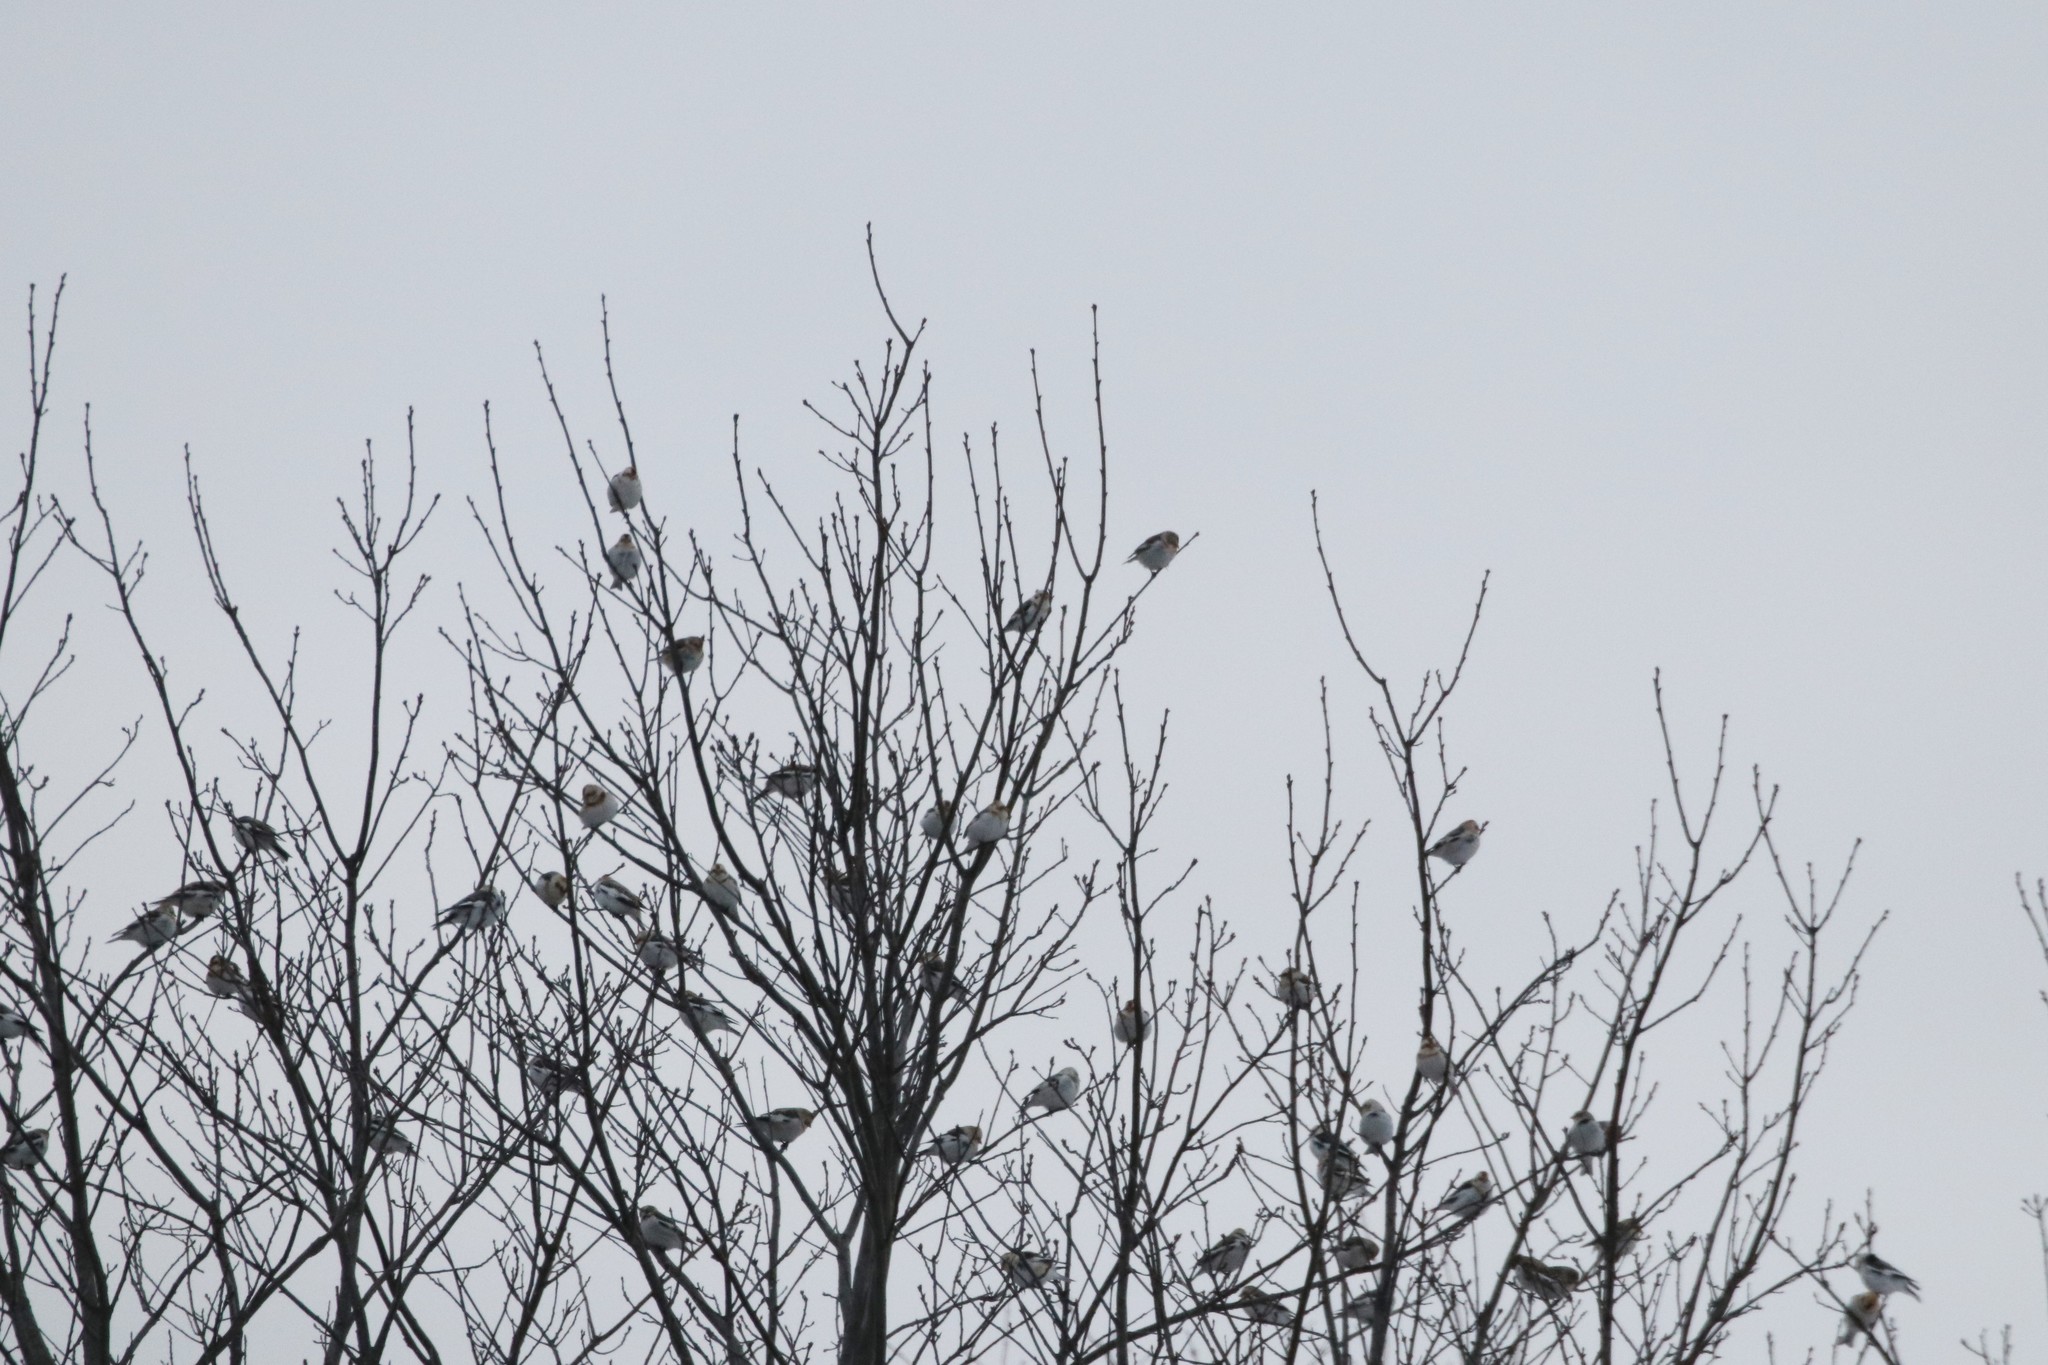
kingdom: Animalia
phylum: Chordata
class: Aves
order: Passeriformes
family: Calcariidae
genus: Plectrophenax
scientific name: Plectrophenax nivalis
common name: Snow bunting
